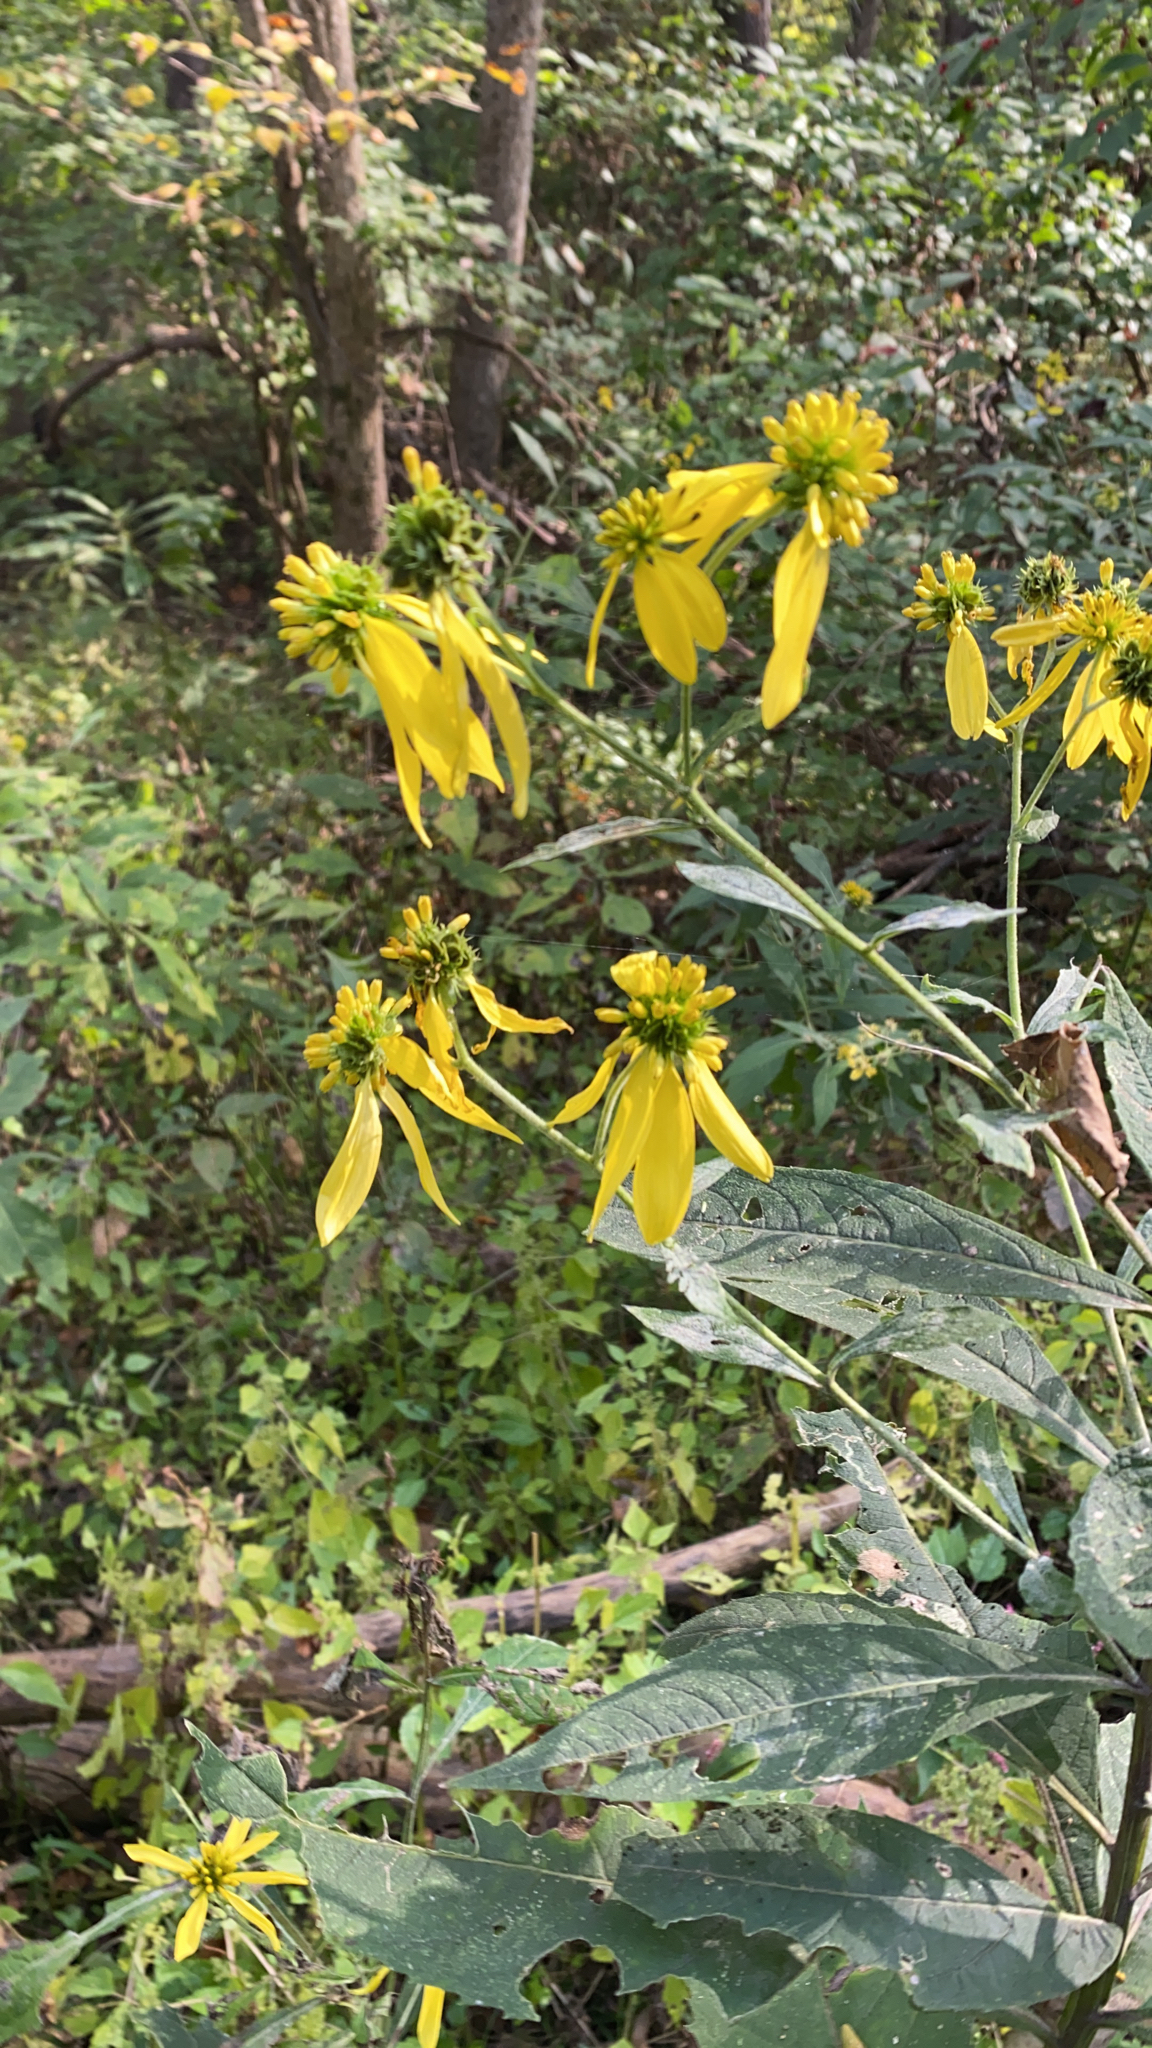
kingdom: Plantae
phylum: Tracheophyta
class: Magnoliopsida
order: Asterales
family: Asteraceae
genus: Verbesina
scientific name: Verbesina alternifolia
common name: Wingstem
